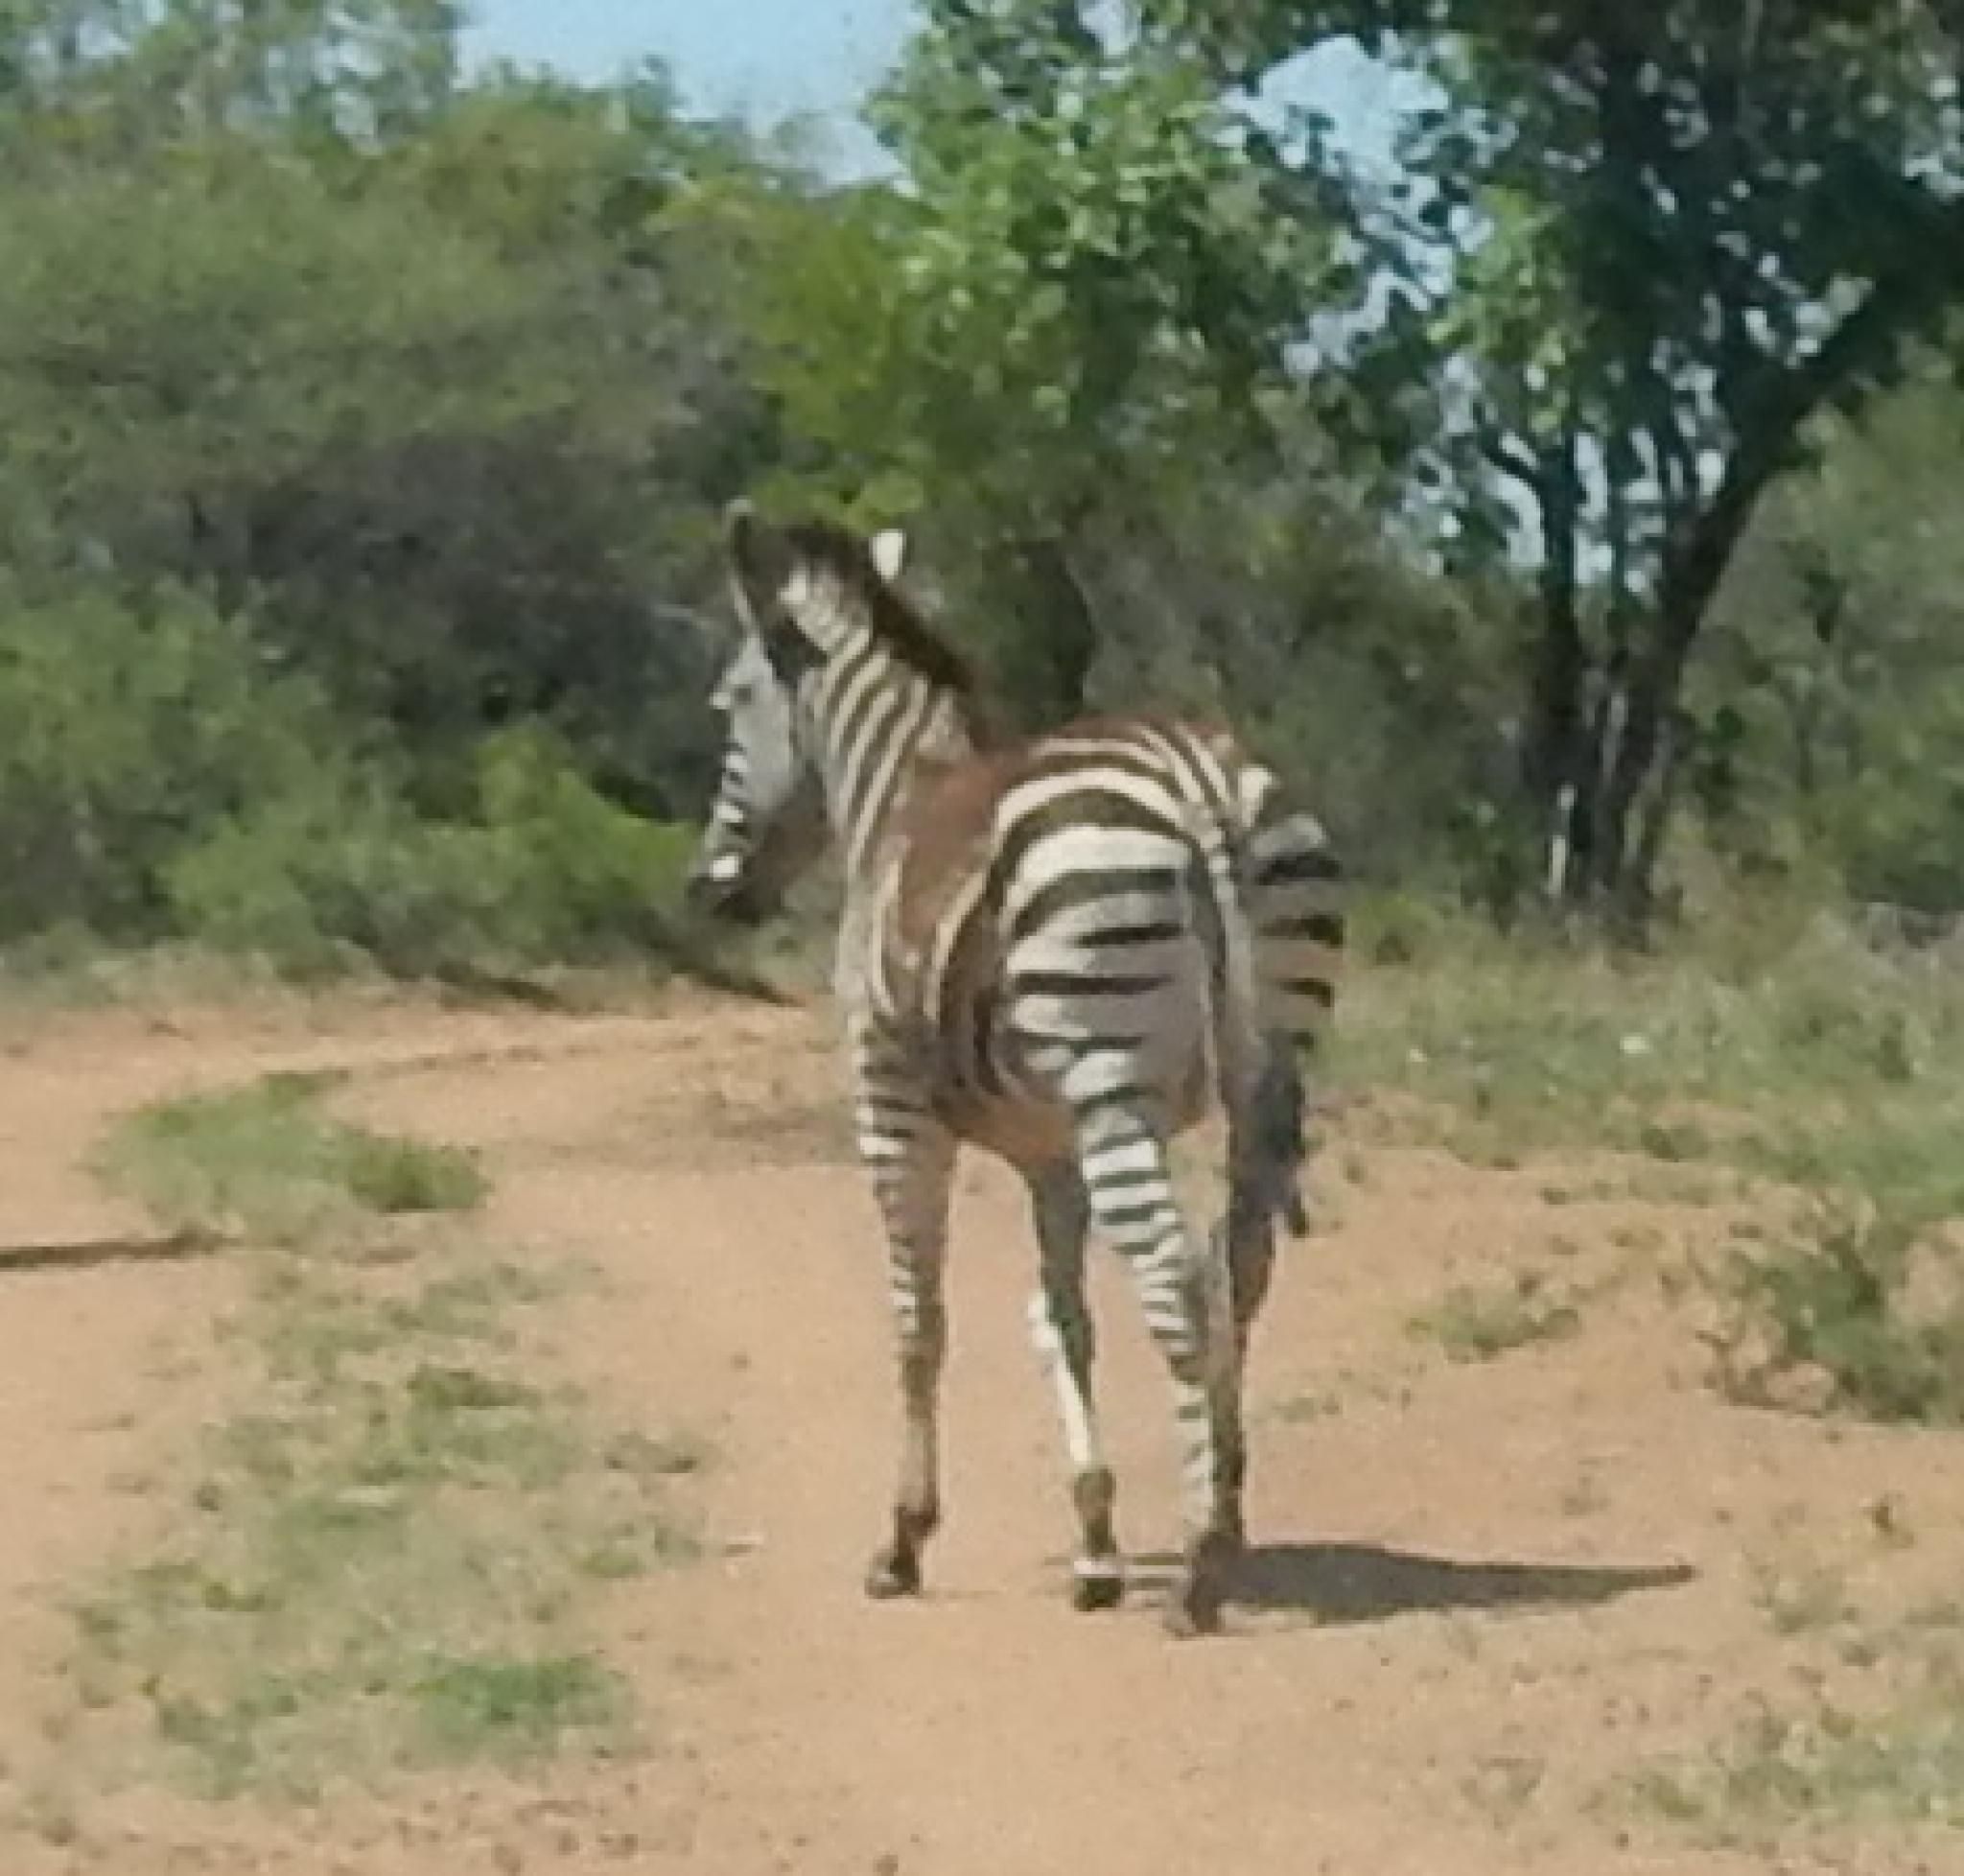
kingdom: Animalia
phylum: Chordata
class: Mammalia
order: Perissodactyla
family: Equidae
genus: Equus
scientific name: Equus quagga
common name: Plains zebra
